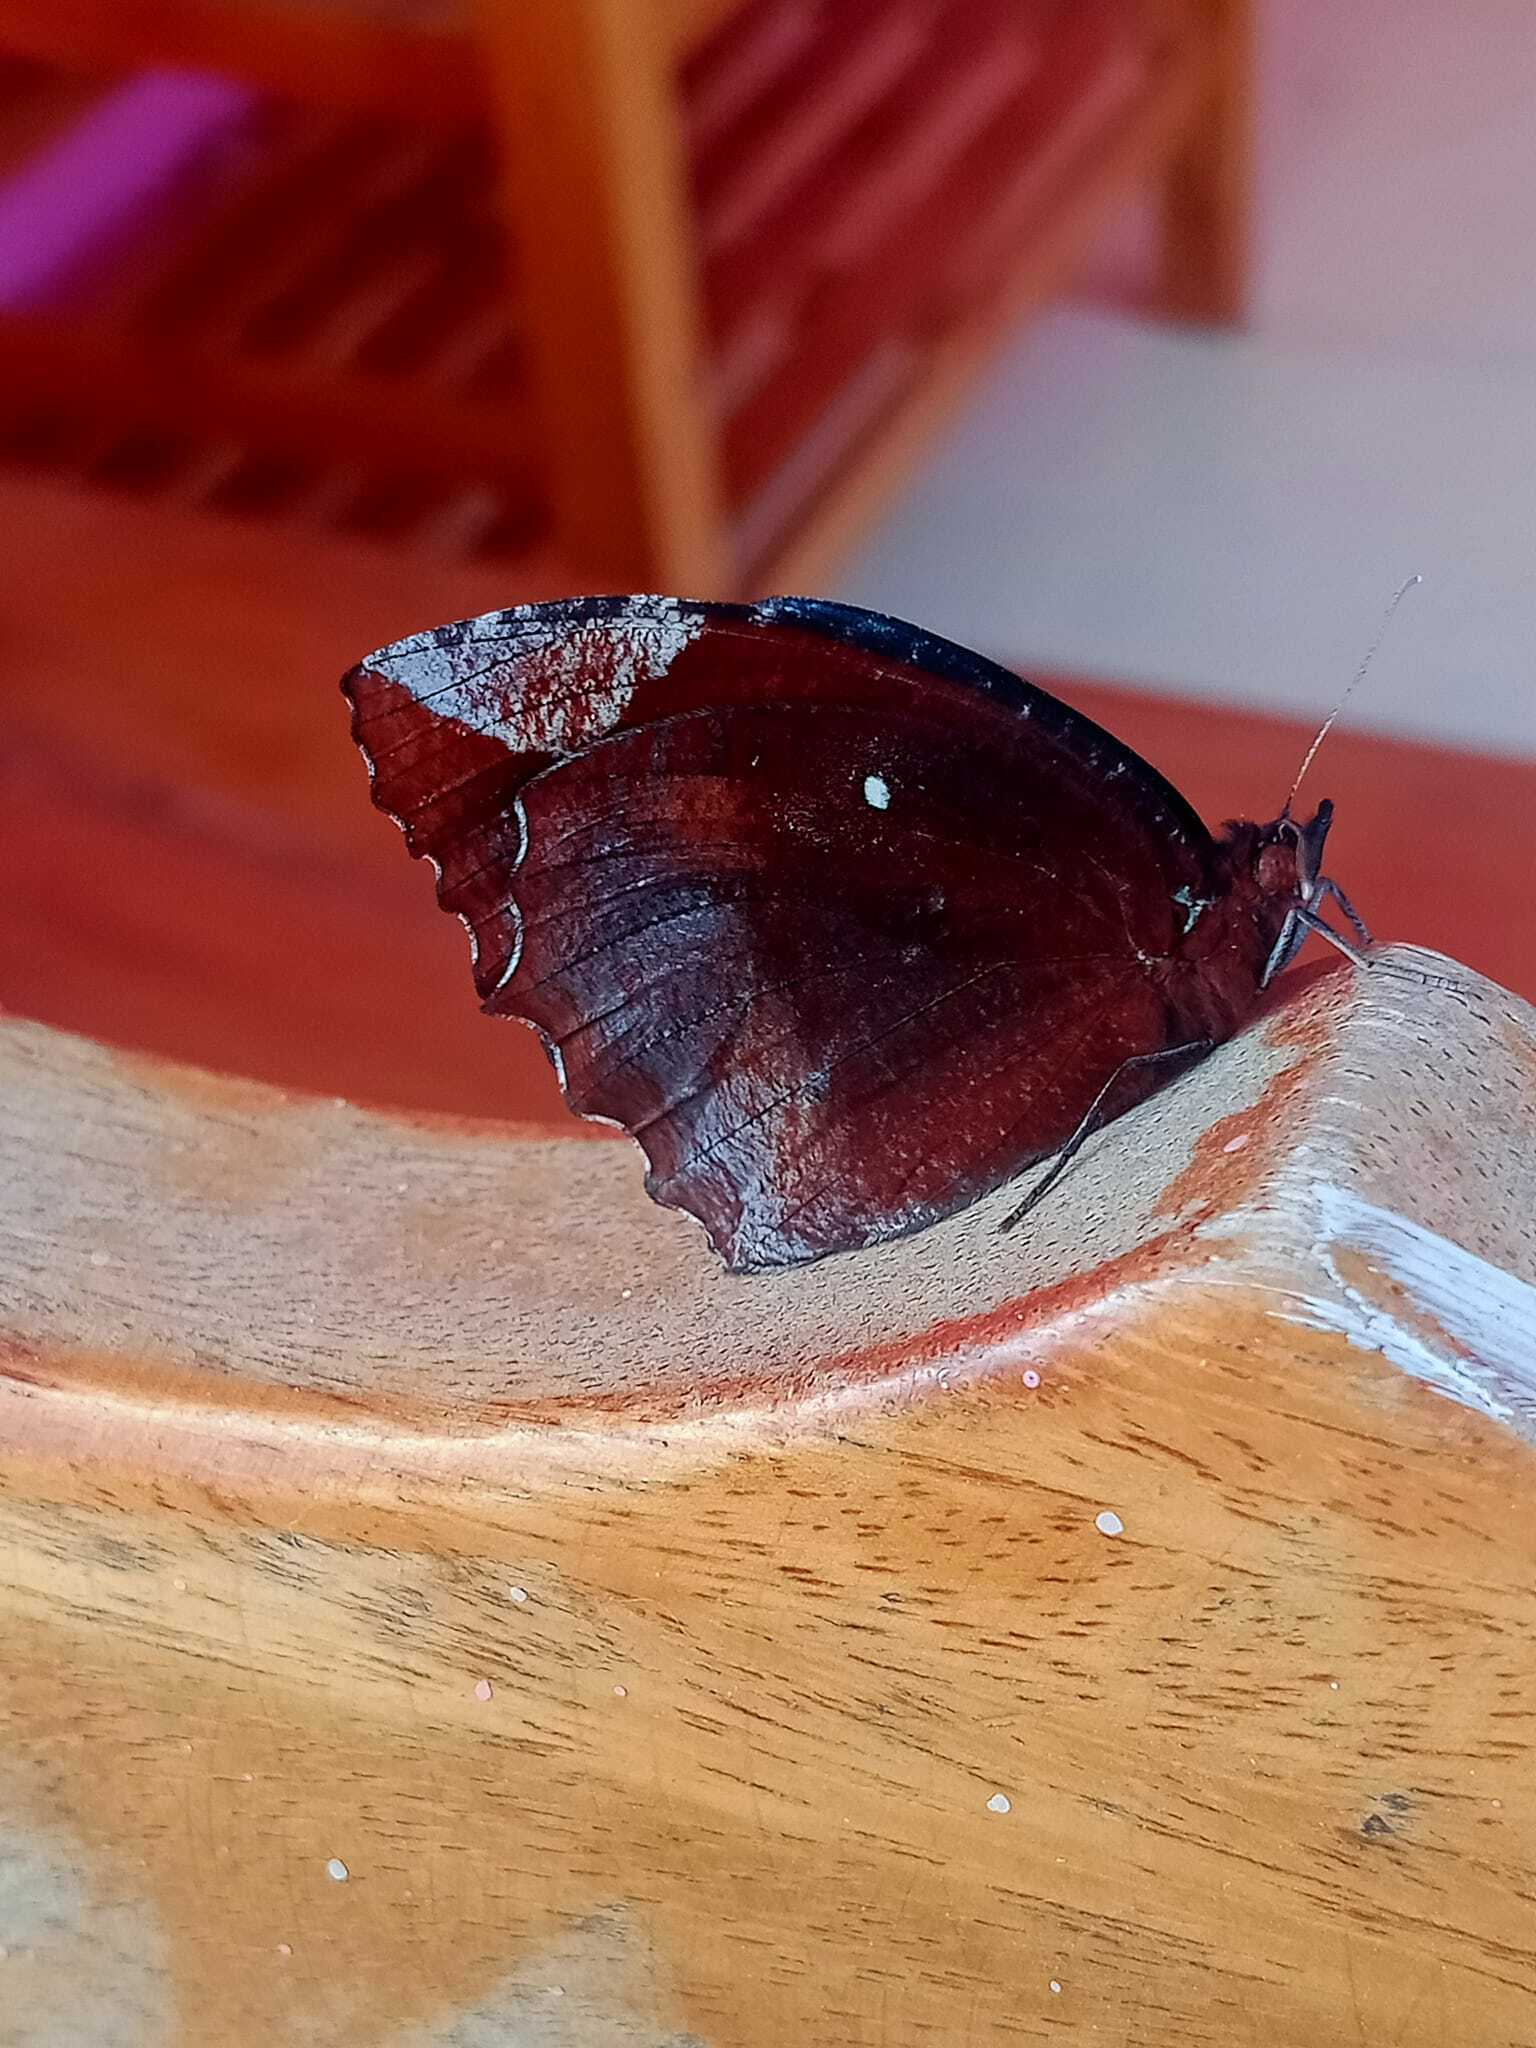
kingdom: Animalia
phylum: Arthropoda
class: Insecta
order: Lepidoptera
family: Nymphalidae
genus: Elymnias
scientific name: Elymnias hypermnestra
